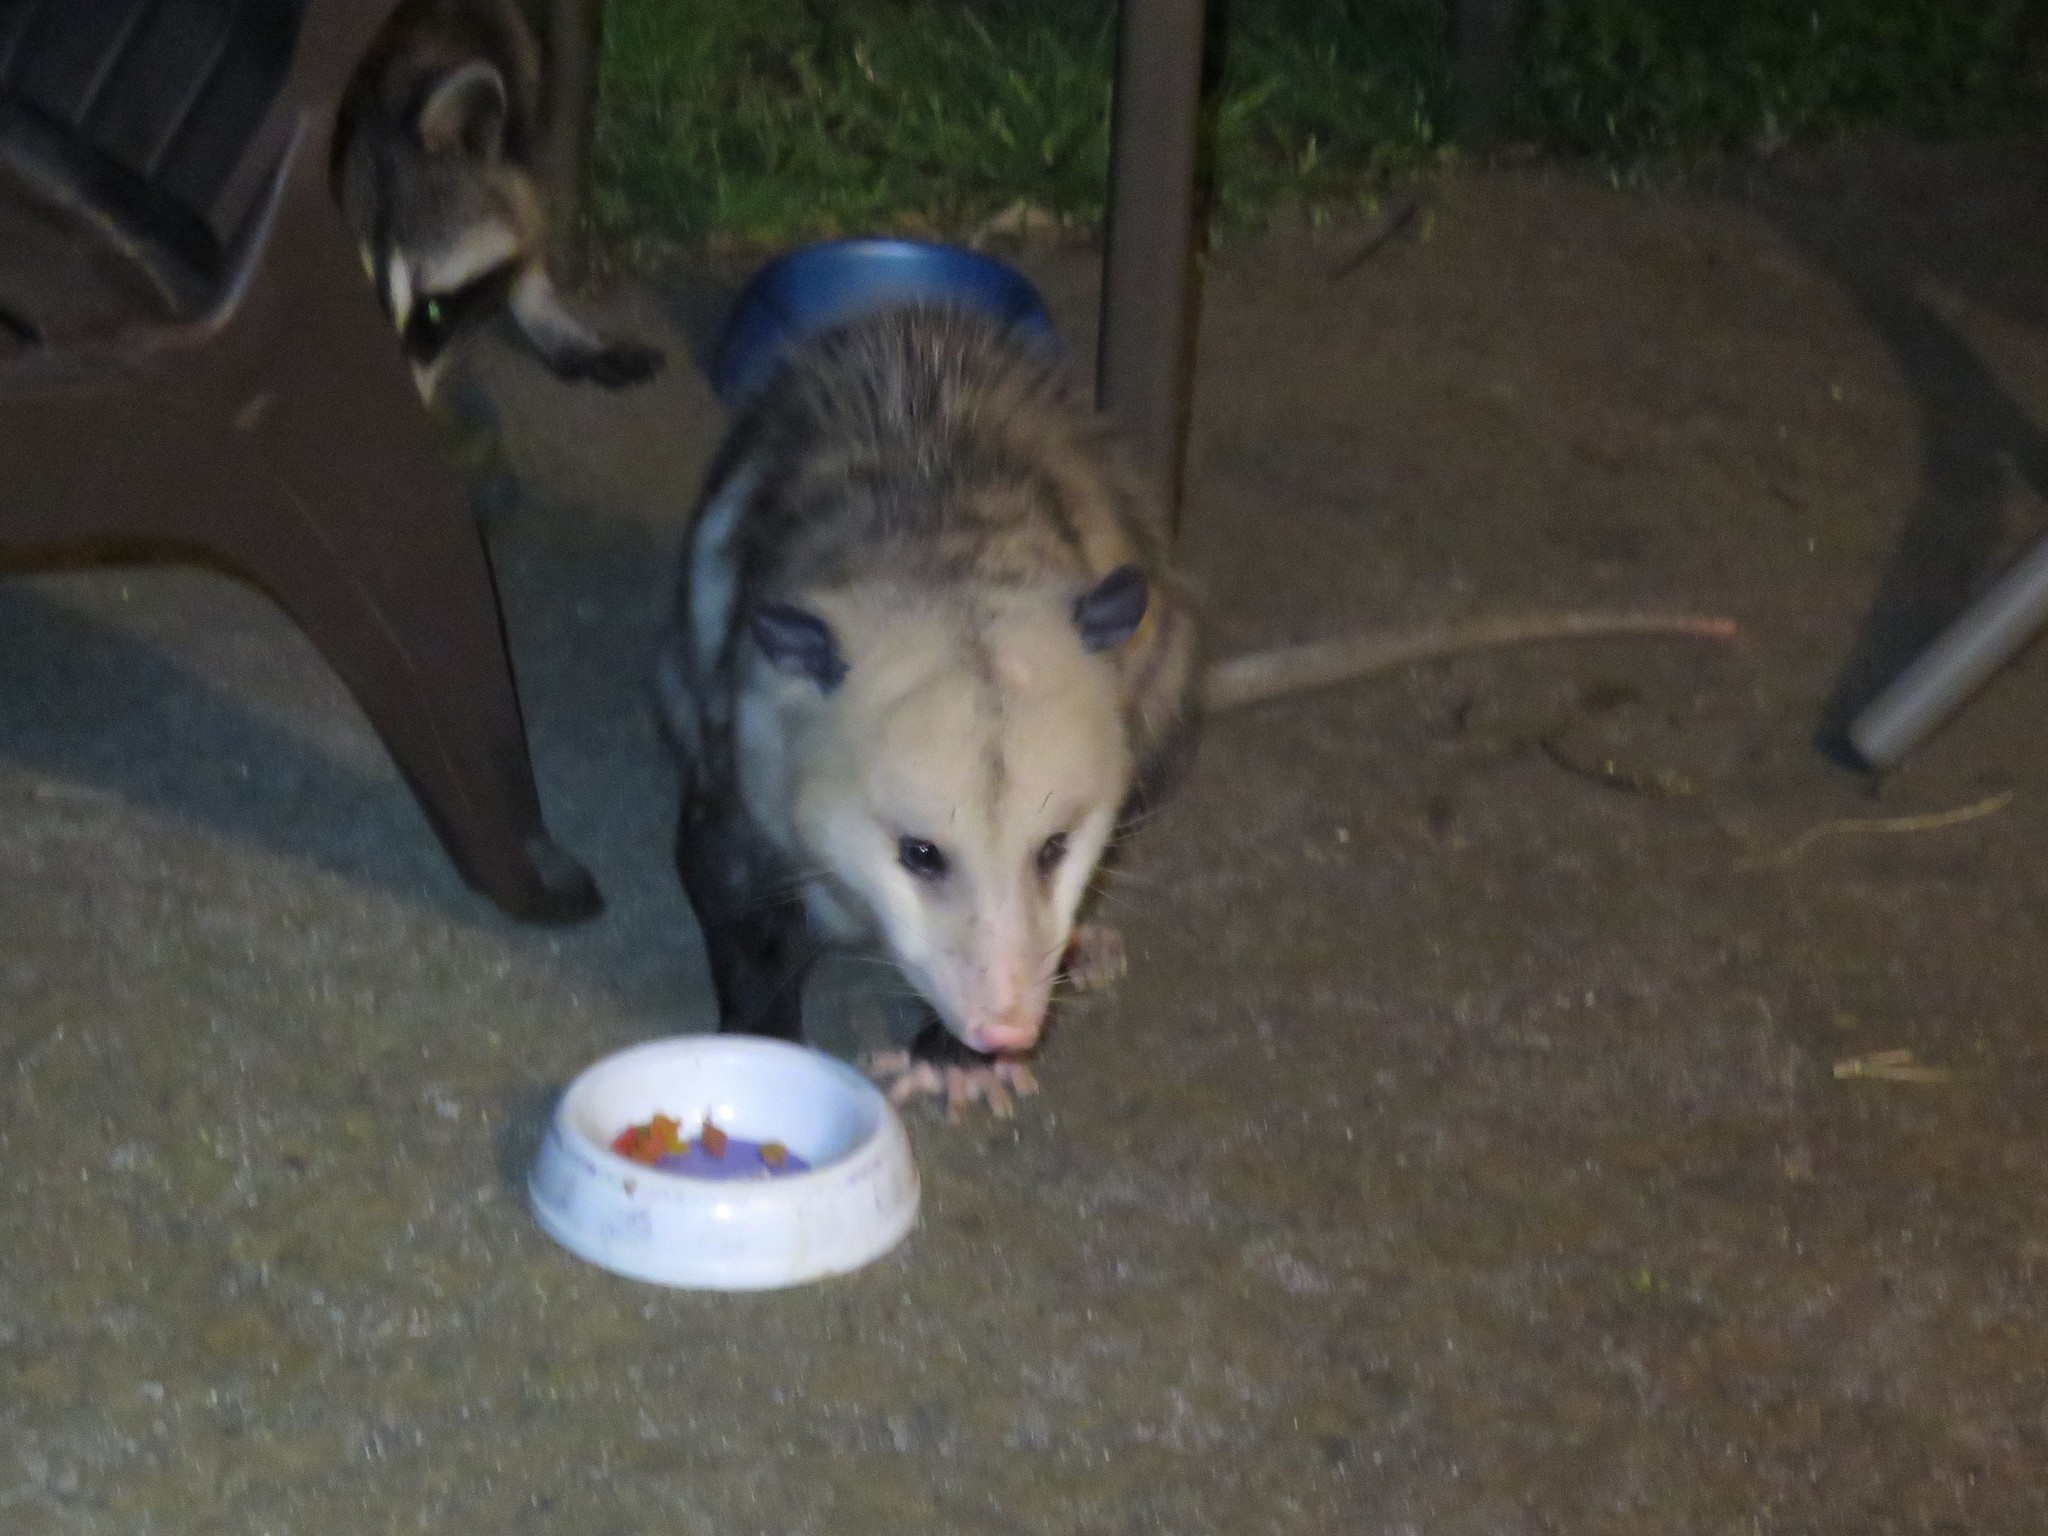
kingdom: Animalia
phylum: Chordata
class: Mammalia
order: Didelphimorphia
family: Didelphidae
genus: Didelphis
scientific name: Didelphis virginiana
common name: Virginia opossum
